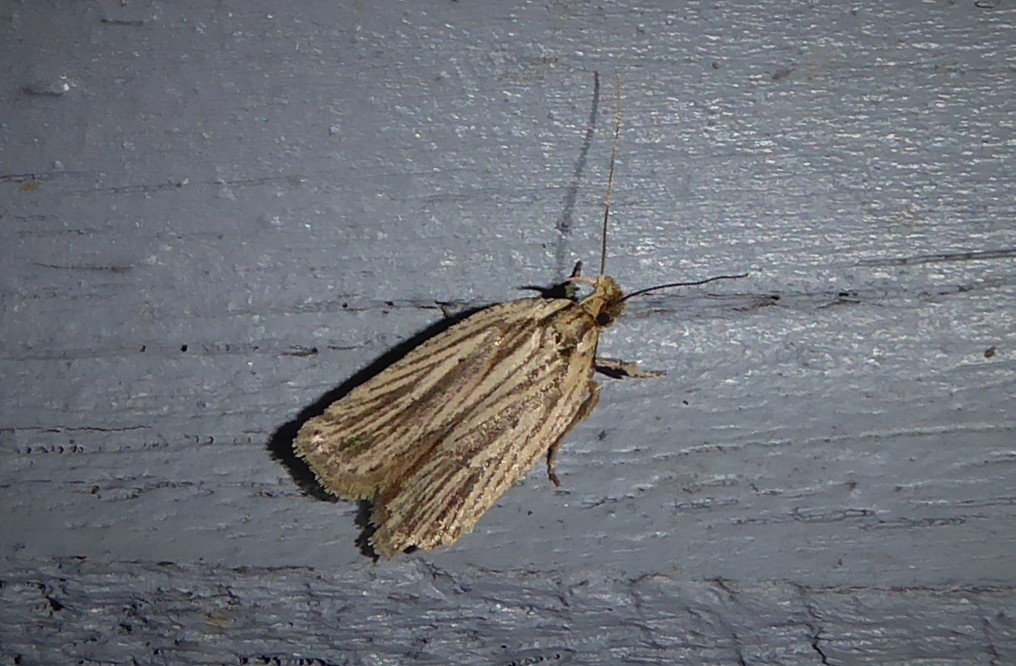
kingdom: Animalia
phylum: Arthropoda
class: Insecta
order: Lepidoptera
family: Depressariidae
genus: Agonopterix
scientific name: Agonopterix
